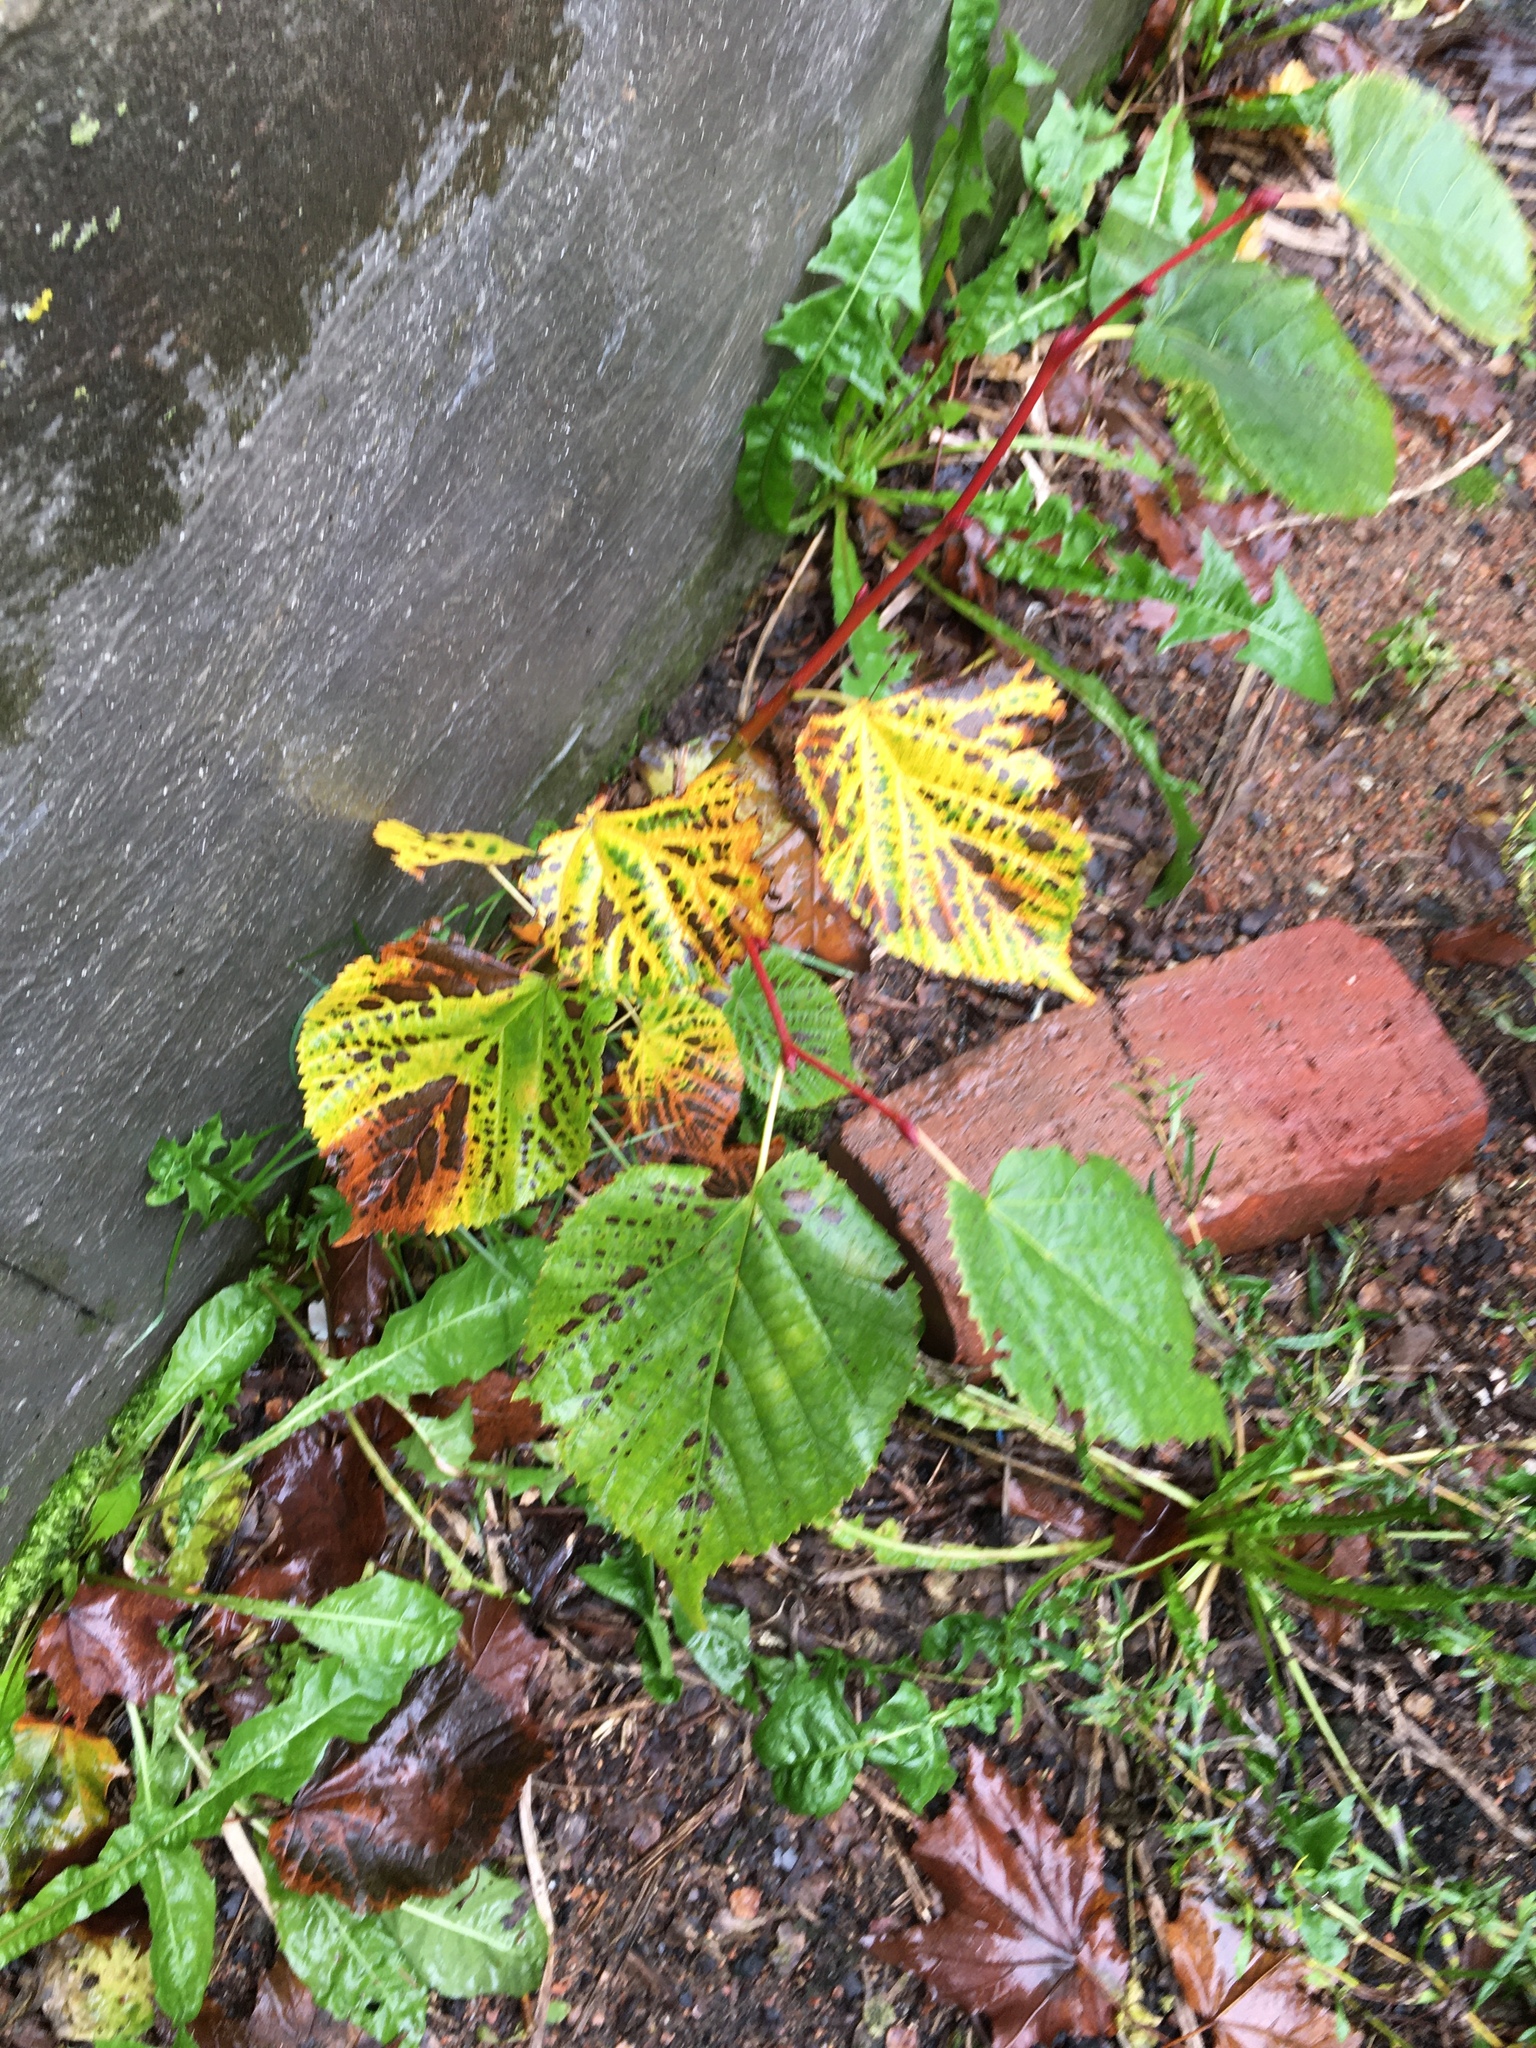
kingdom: Plantae
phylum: Tracheophyta
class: Magnoliopsida
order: Malvales
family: Malvaceae
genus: Tilia
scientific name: Tilia cordata
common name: Small-leaved lime
